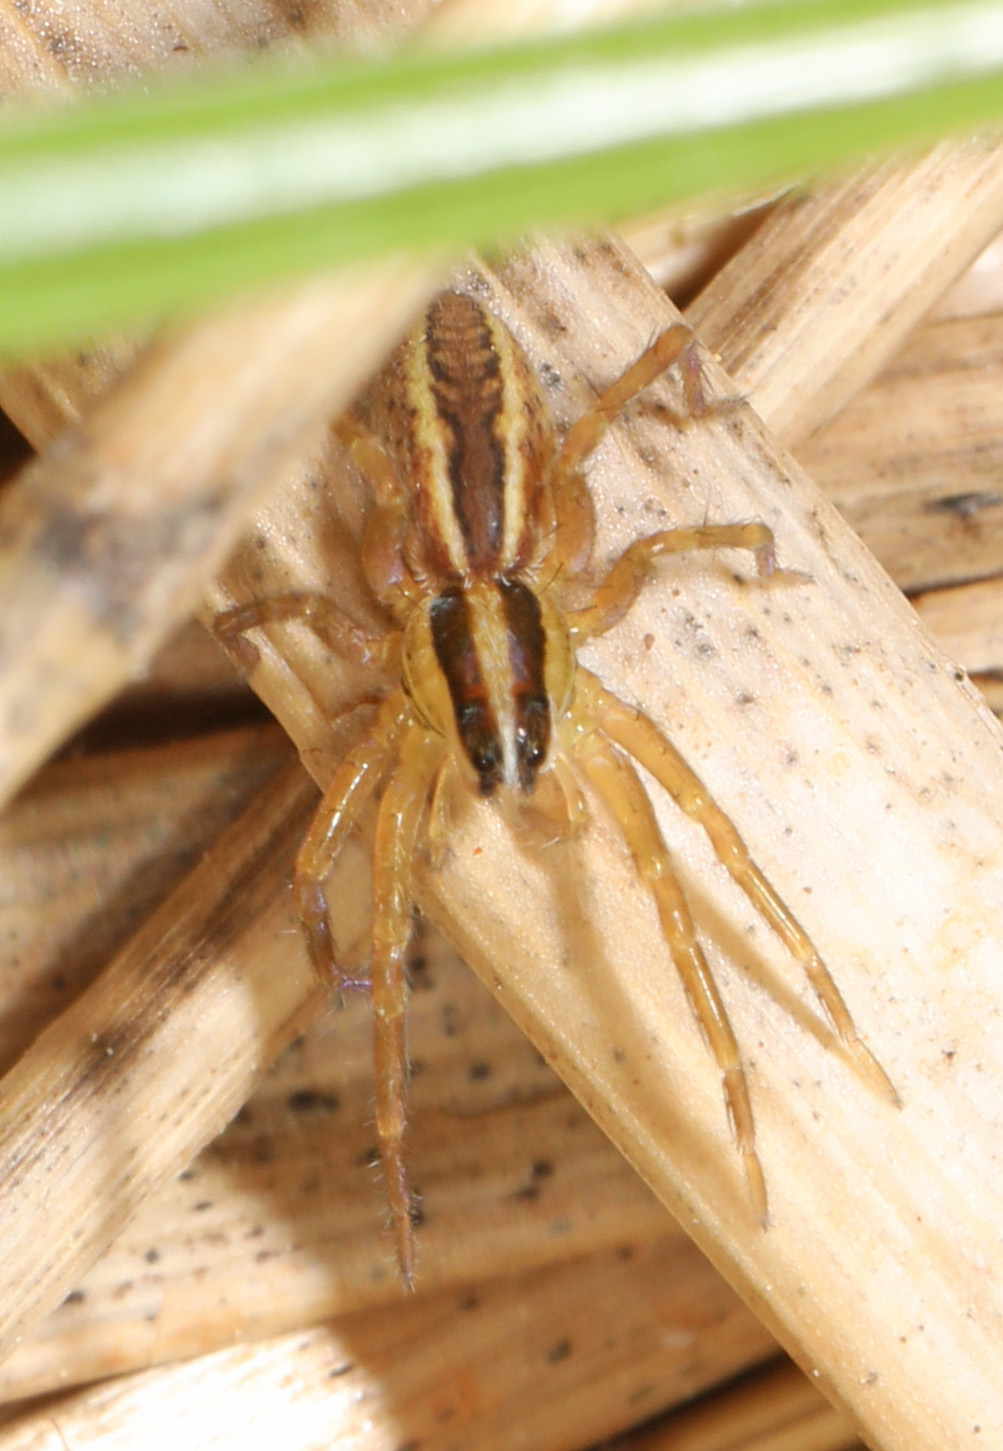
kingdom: Animalia
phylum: Arthropoda
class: Arachnida
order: Araneae
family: Lycosidae
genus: Rabidosa
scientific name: Rabidosa rabida
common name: Rabid wolf spider
